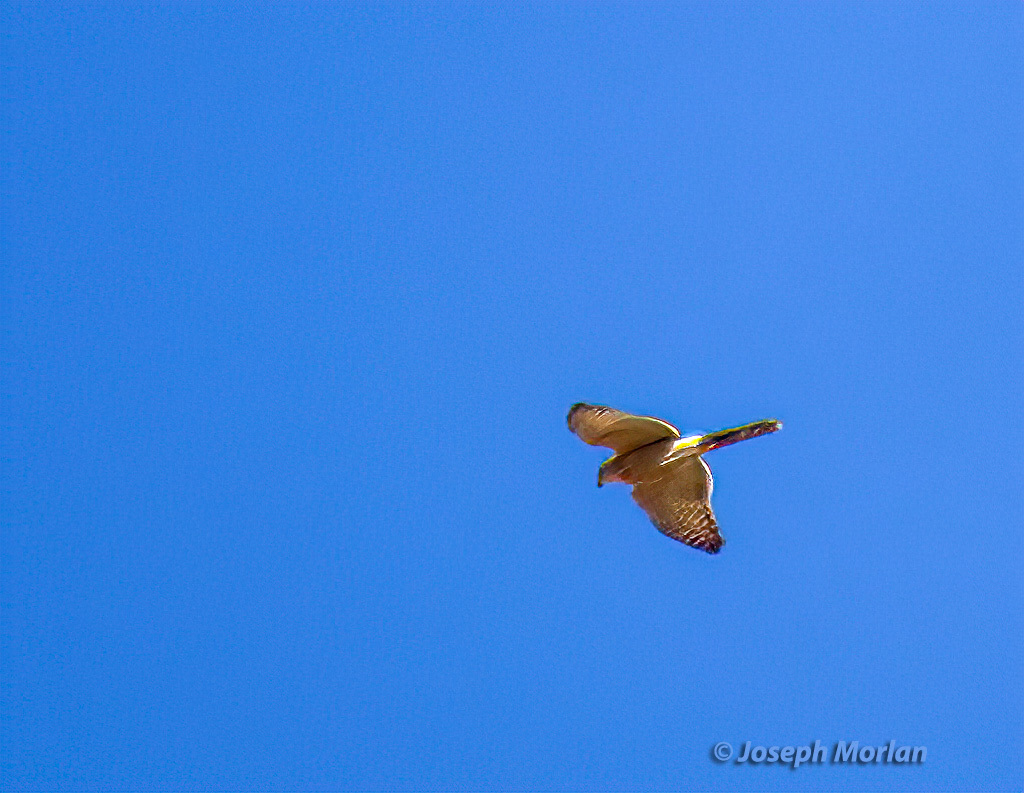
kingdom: Animalia
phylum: Chordata
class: Aves
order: Accipitriformes
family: Accipitridae
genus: Micronisus
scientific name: Micronisus gabar
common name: Gabar goshawk
